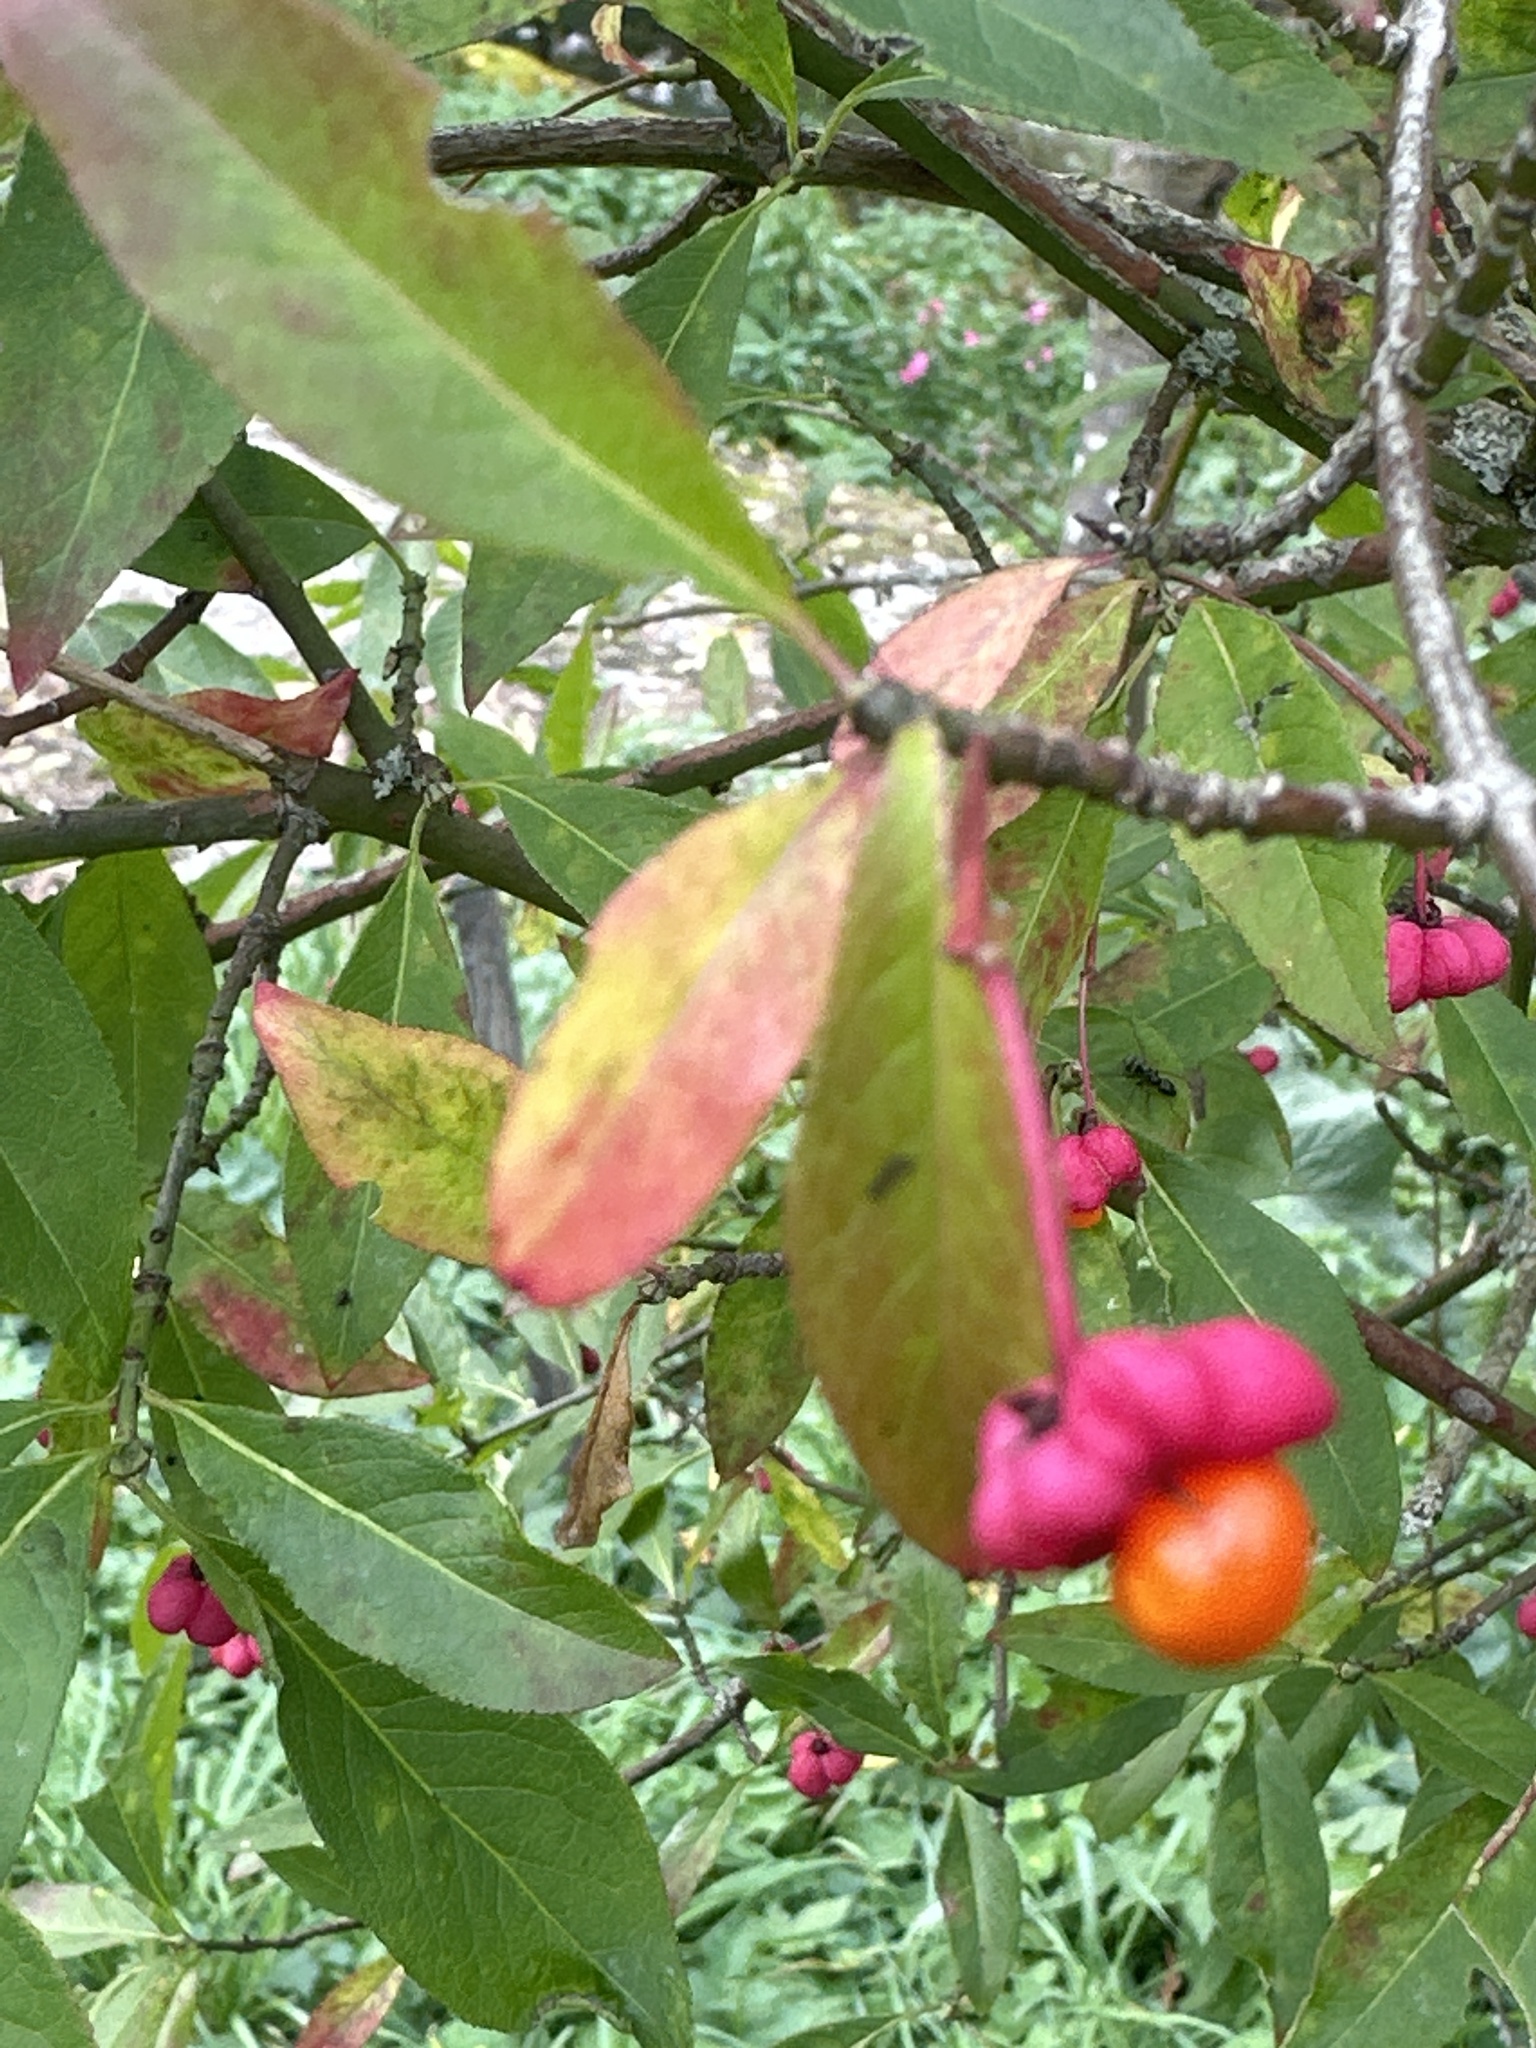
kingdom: Plantae
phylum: Tracheophyta
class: Magnoliopsida
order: Celastrales
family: Celastraceae
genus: Euonymus
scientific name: Euonymus europaeus
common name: Spindle
